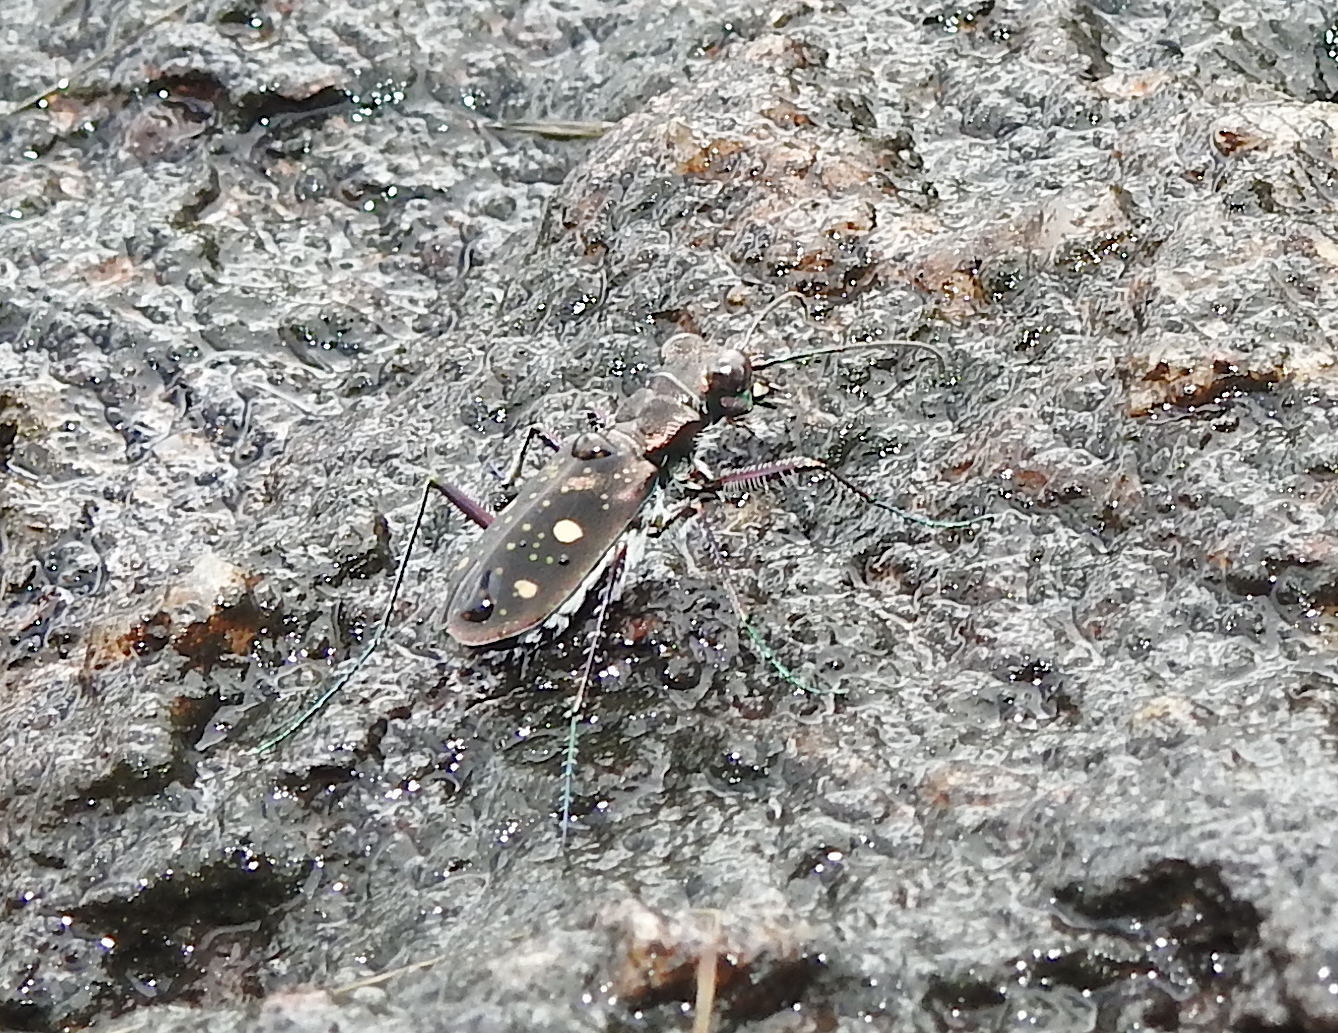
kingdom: Animalia
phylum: Arthropoda
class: Insecta
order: Coleoptera
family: Carabidae
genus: Jansenia
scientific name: Jansenia tetragrammica
